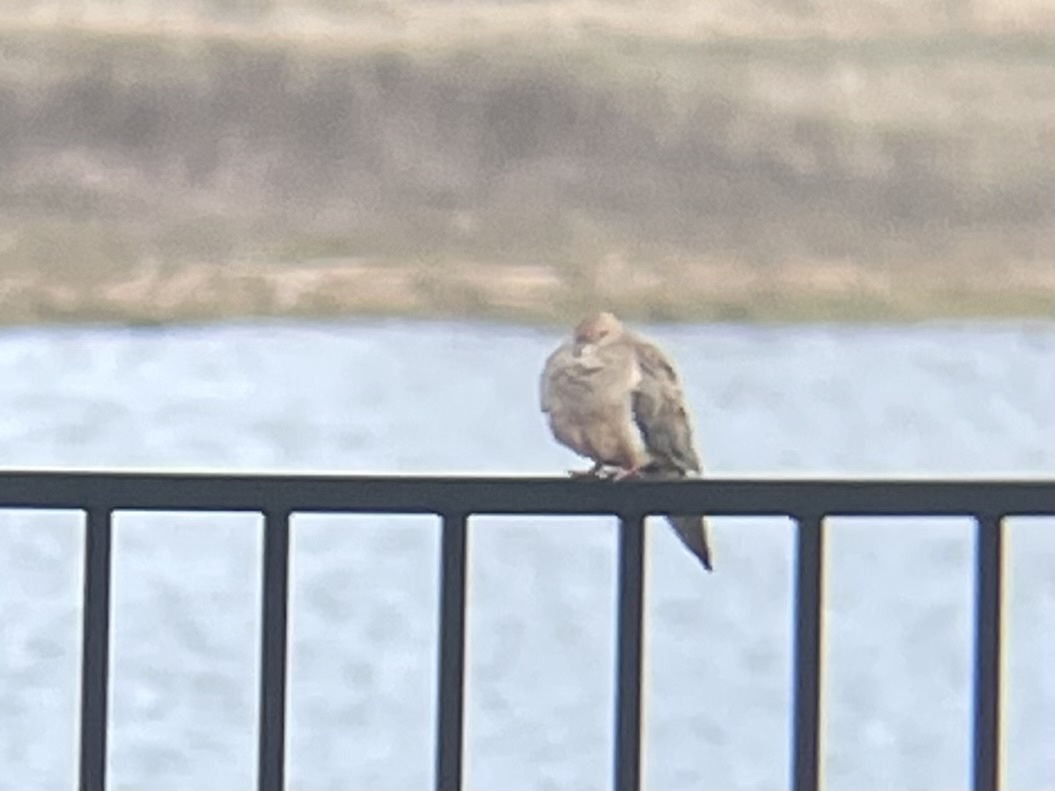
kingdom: Animalia
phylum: Chordata
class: Aves
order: Columbiformes
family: Columbidae
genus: Zenaida
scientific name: Zenaida macroura
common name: Mourning dove
